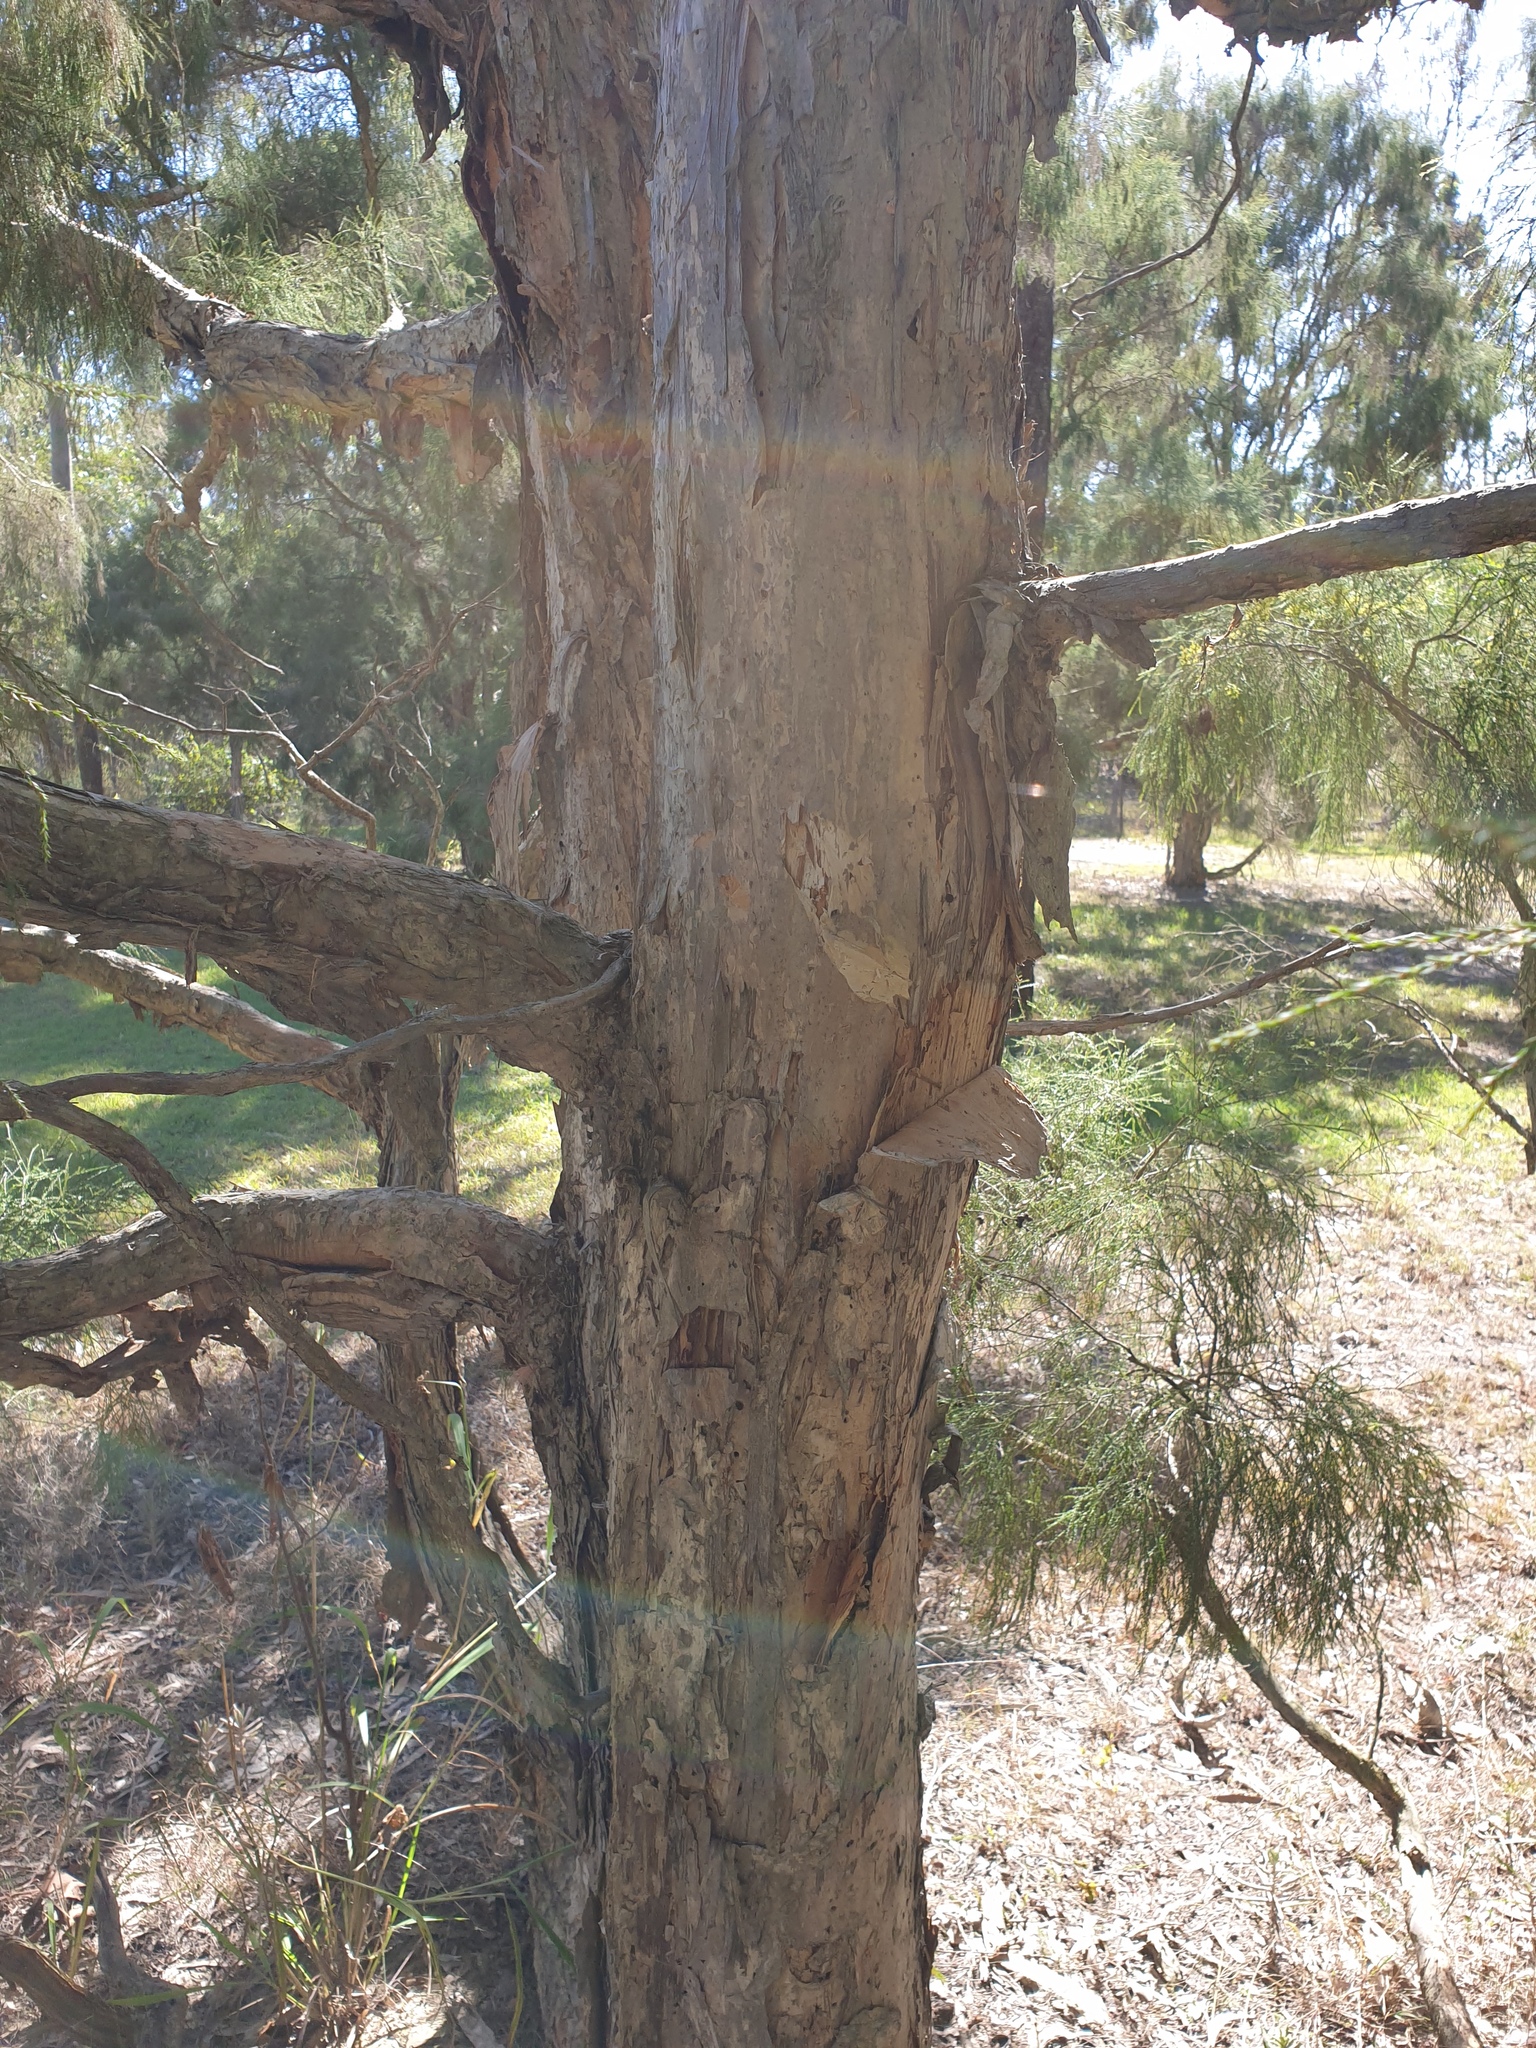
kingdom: Plantae
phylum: Tracheophyta
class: Magnoliopsida
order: Myrtales
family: Myrtaceae
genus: Melaleuca
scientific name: Melaleuca irbyana
